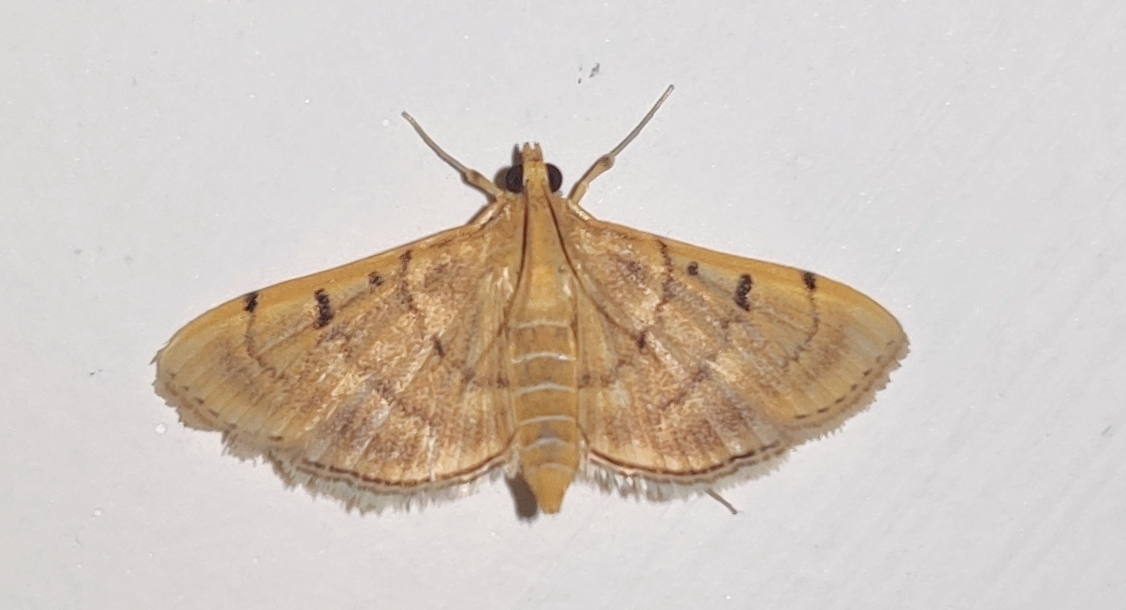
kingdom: Animalia
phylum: Arthropoda
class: Insecta
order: Lepidoptera
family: Crambidae
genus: Omiodes
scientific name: Omiodes indicata
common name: Bean-leaf webworm moth
